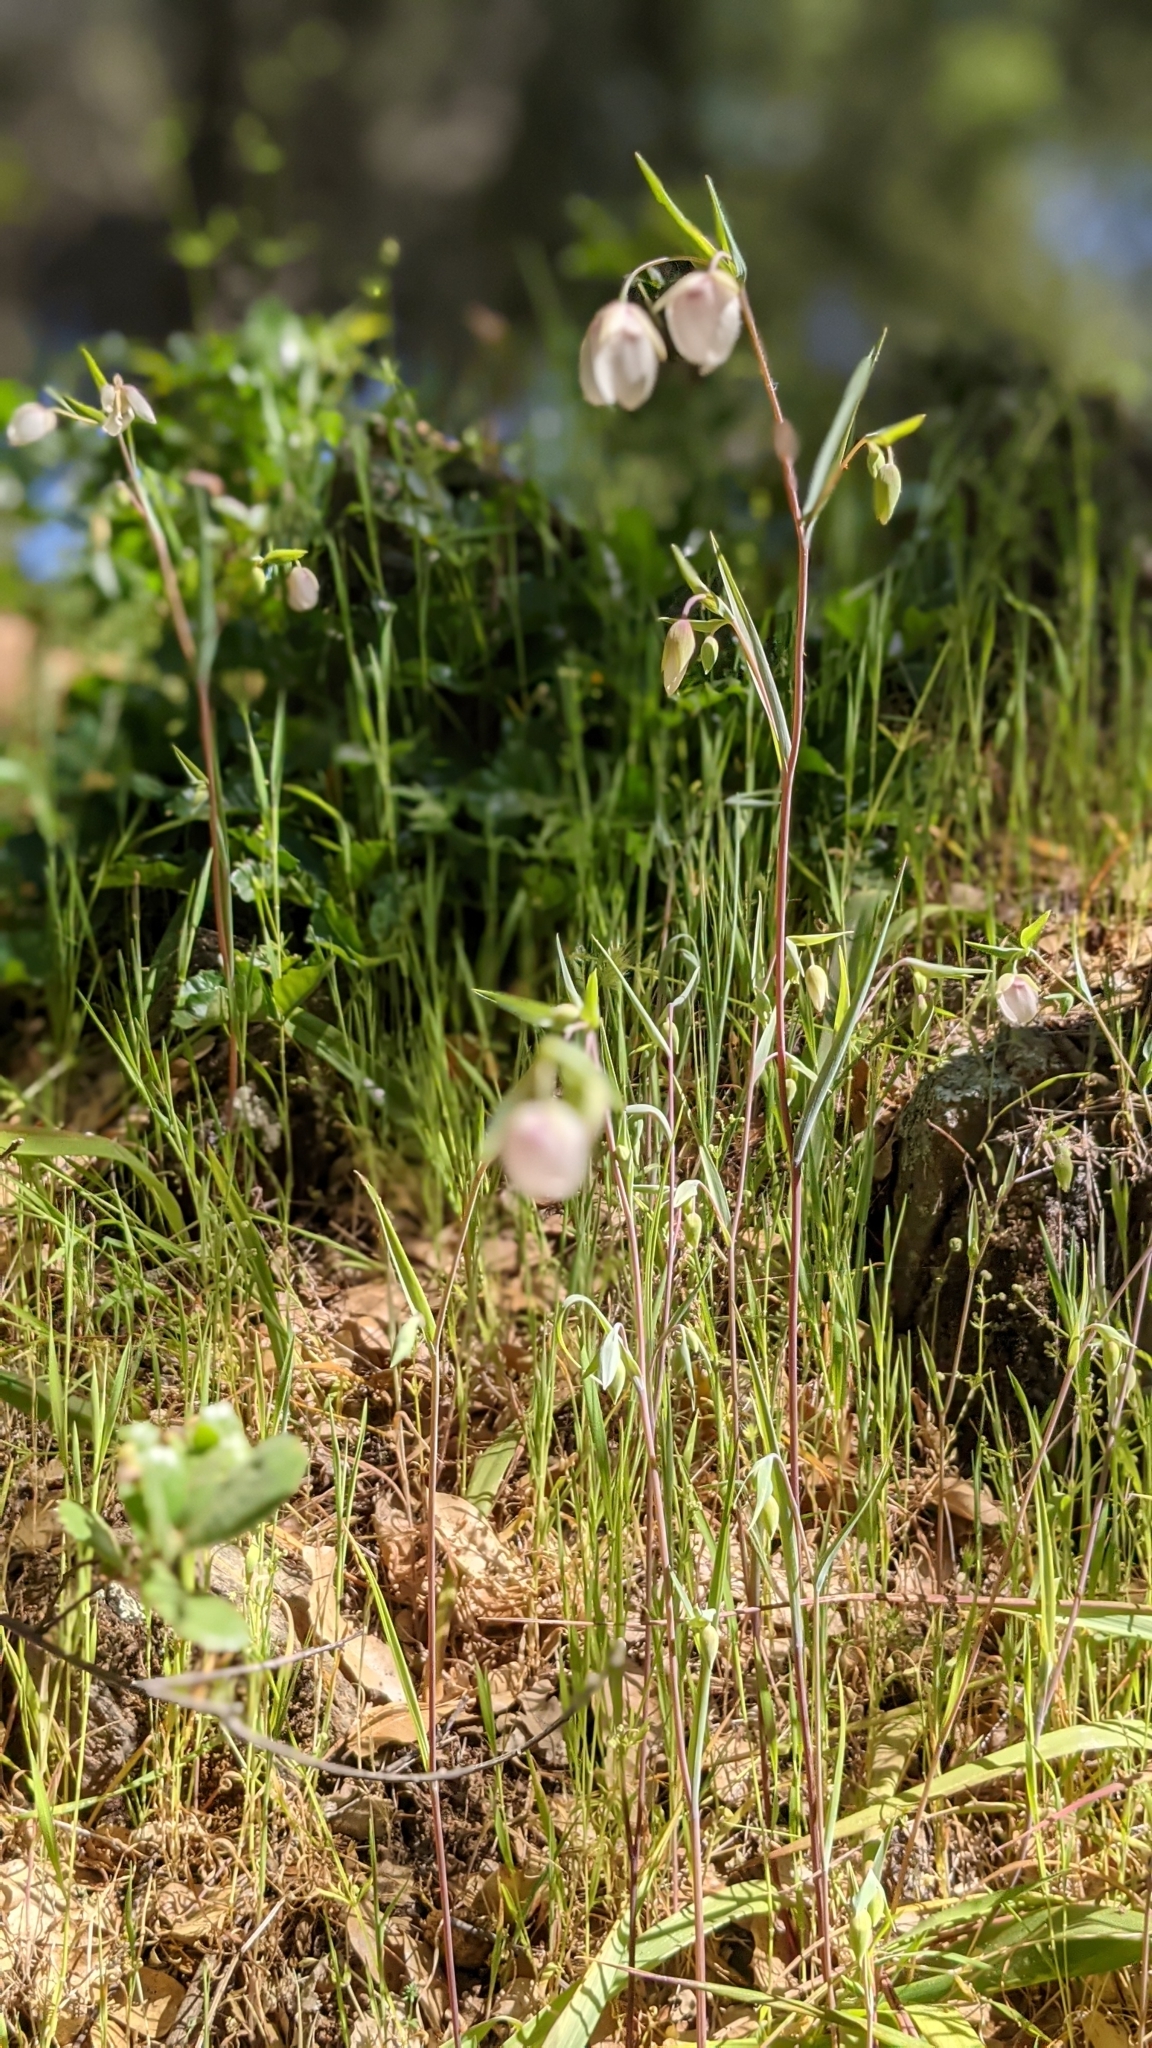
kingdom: Plantae
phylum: Tracheophyta
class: Liliopsida
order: Liliales
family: Liliaceae
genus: Calochortus
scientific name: Calochortus albus
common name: Fairy-lantern
